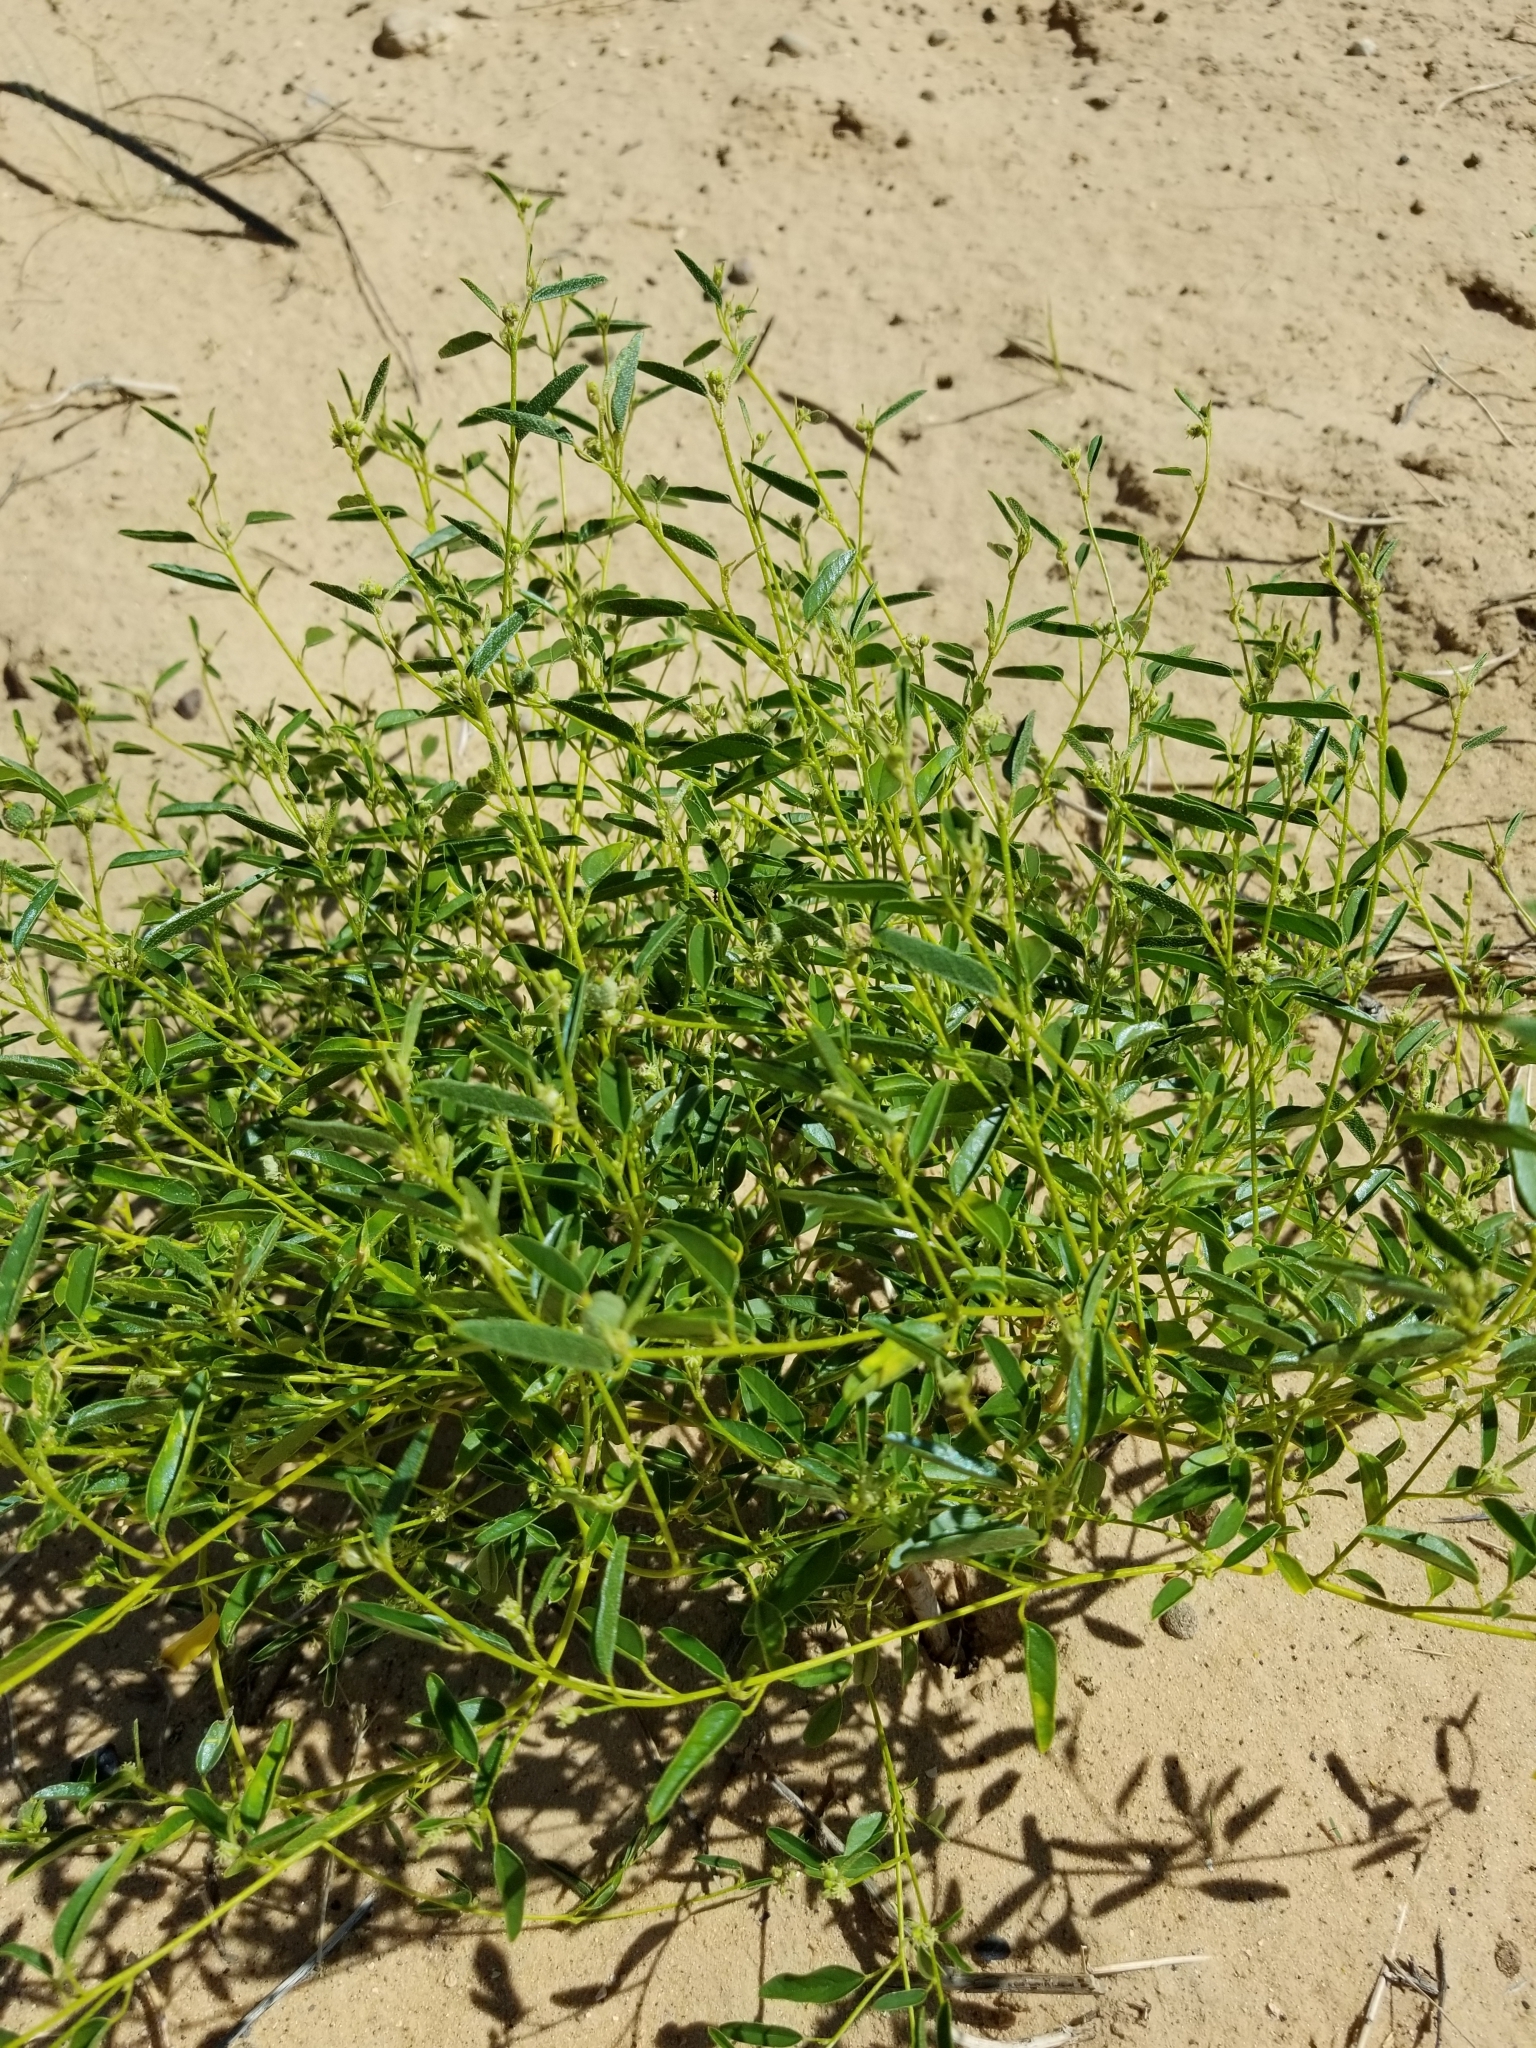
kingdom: Plantae
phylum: Tracheophyta
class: Magnoliopsida
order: Malpighiales
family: Euphorbiaceae
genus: Croton
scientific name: Croton texensis
